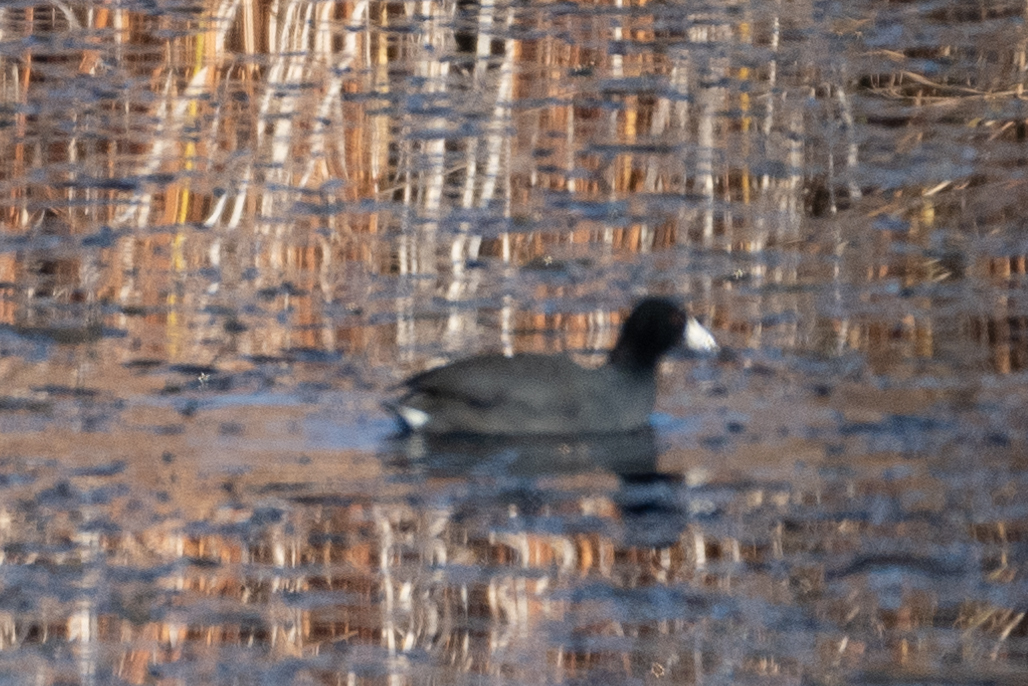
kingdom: Animalia
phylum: Chordata
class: Aves
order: Gruiformes
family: Rallidae
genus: Fulica
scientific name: Fulica americana
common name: American coot
